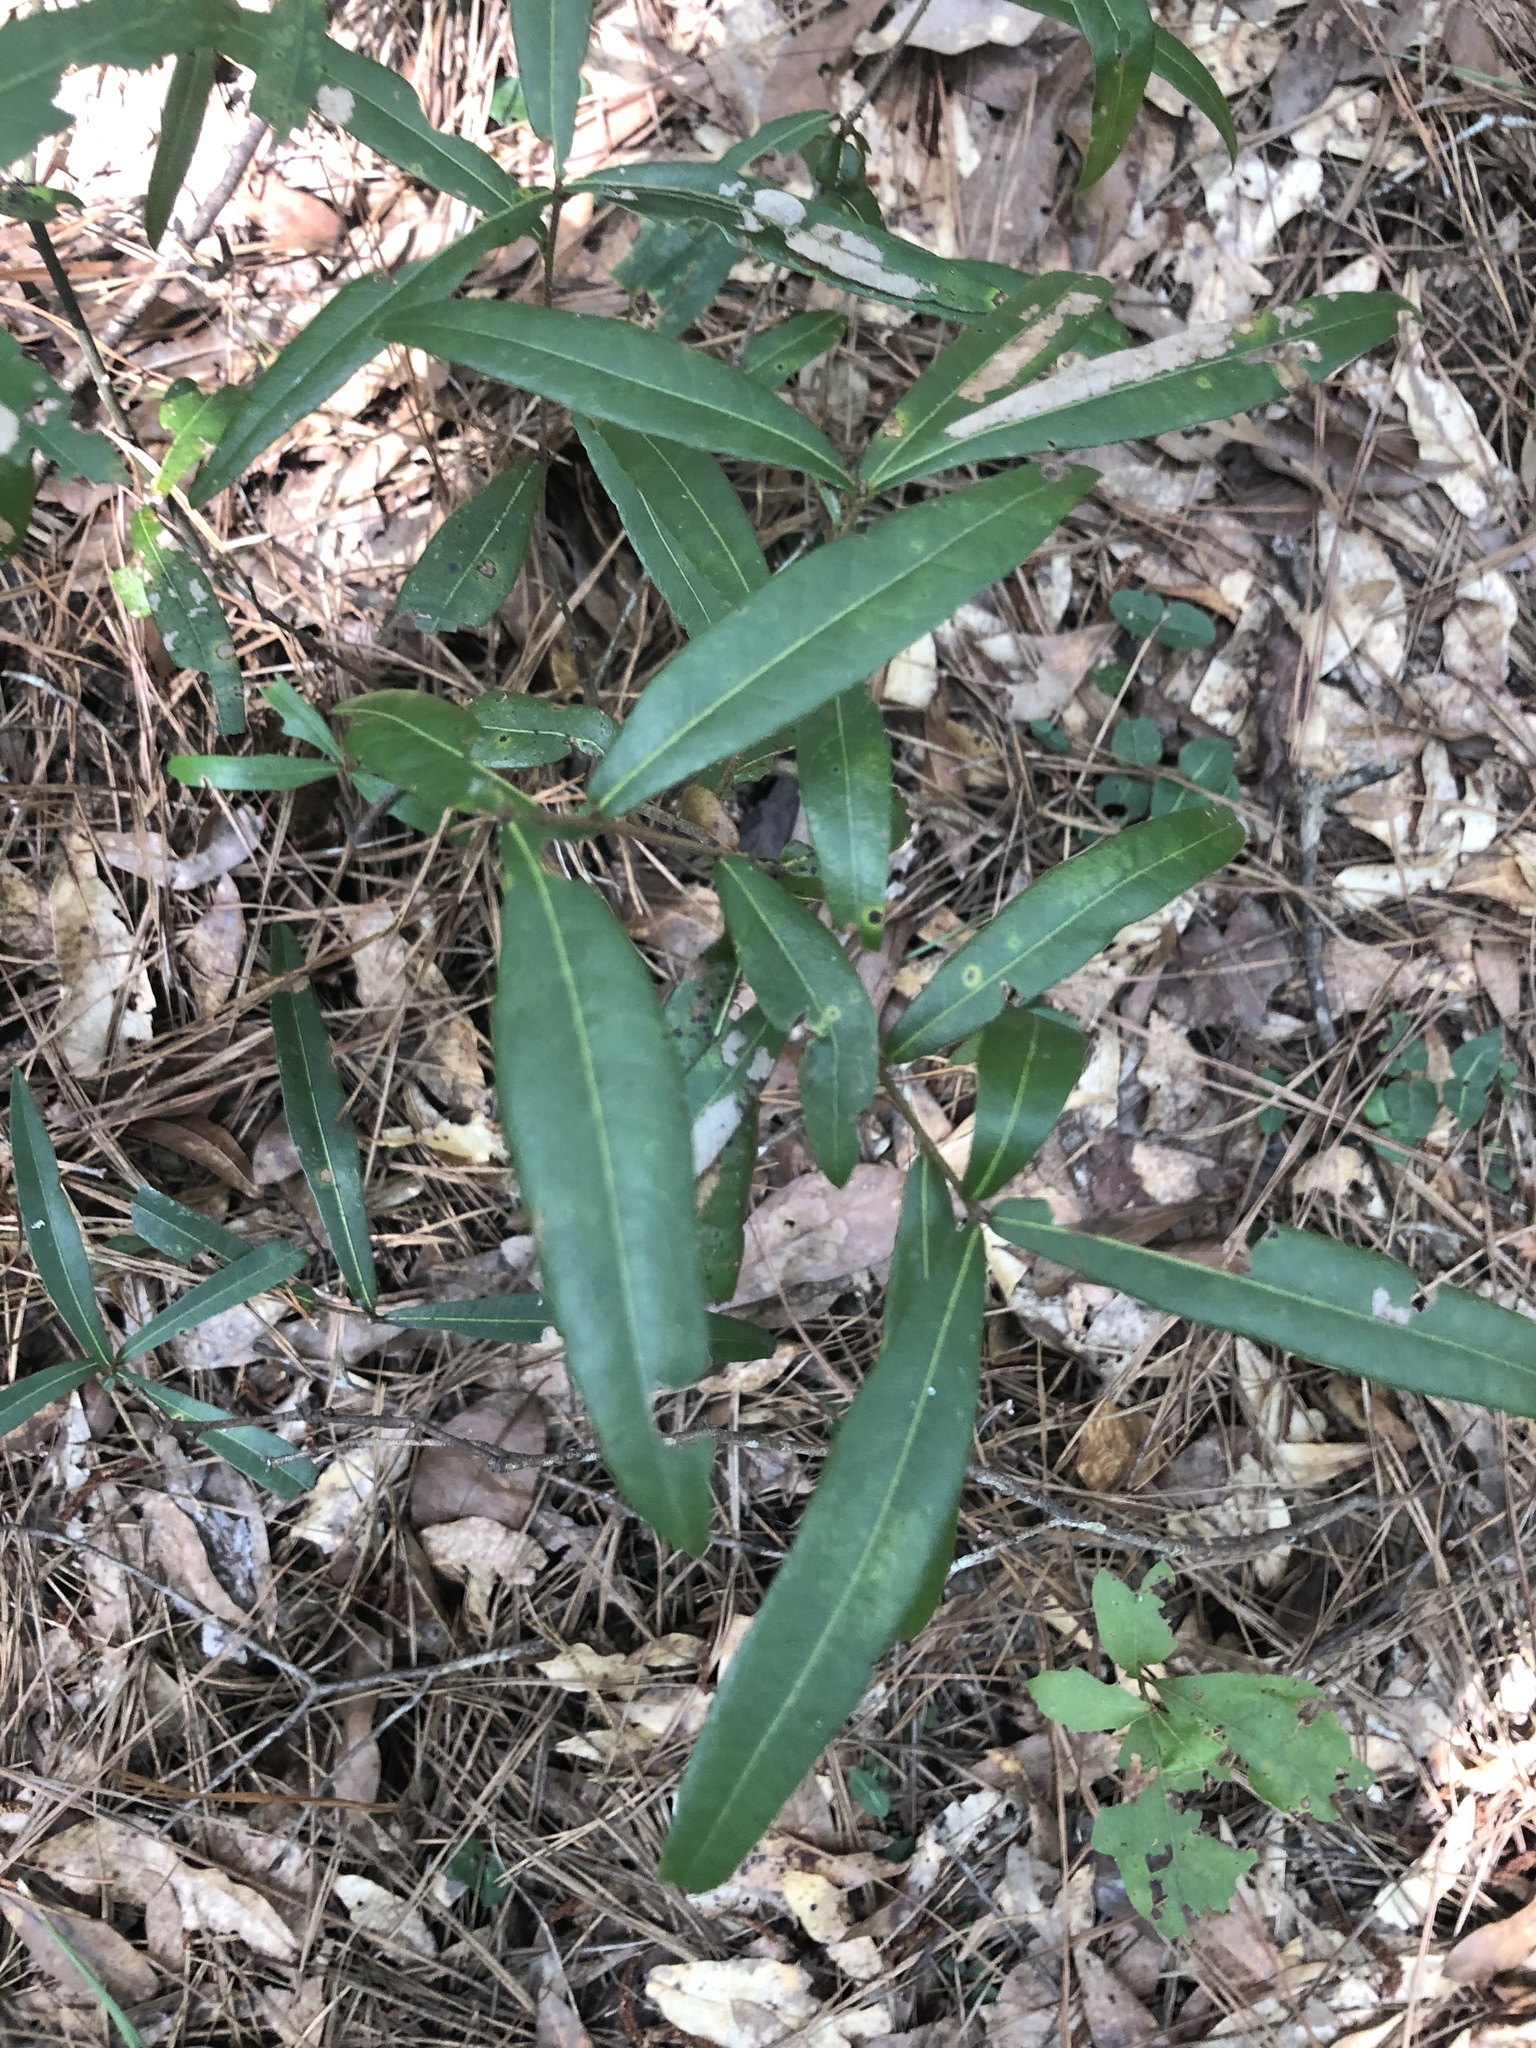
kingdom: Plantae
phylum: Tracheophyta
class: Magnoliopsida
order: Fagales
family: Fagaceae
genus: Quercus
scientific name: Quercus hemisphaerica
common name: Darlington oak
